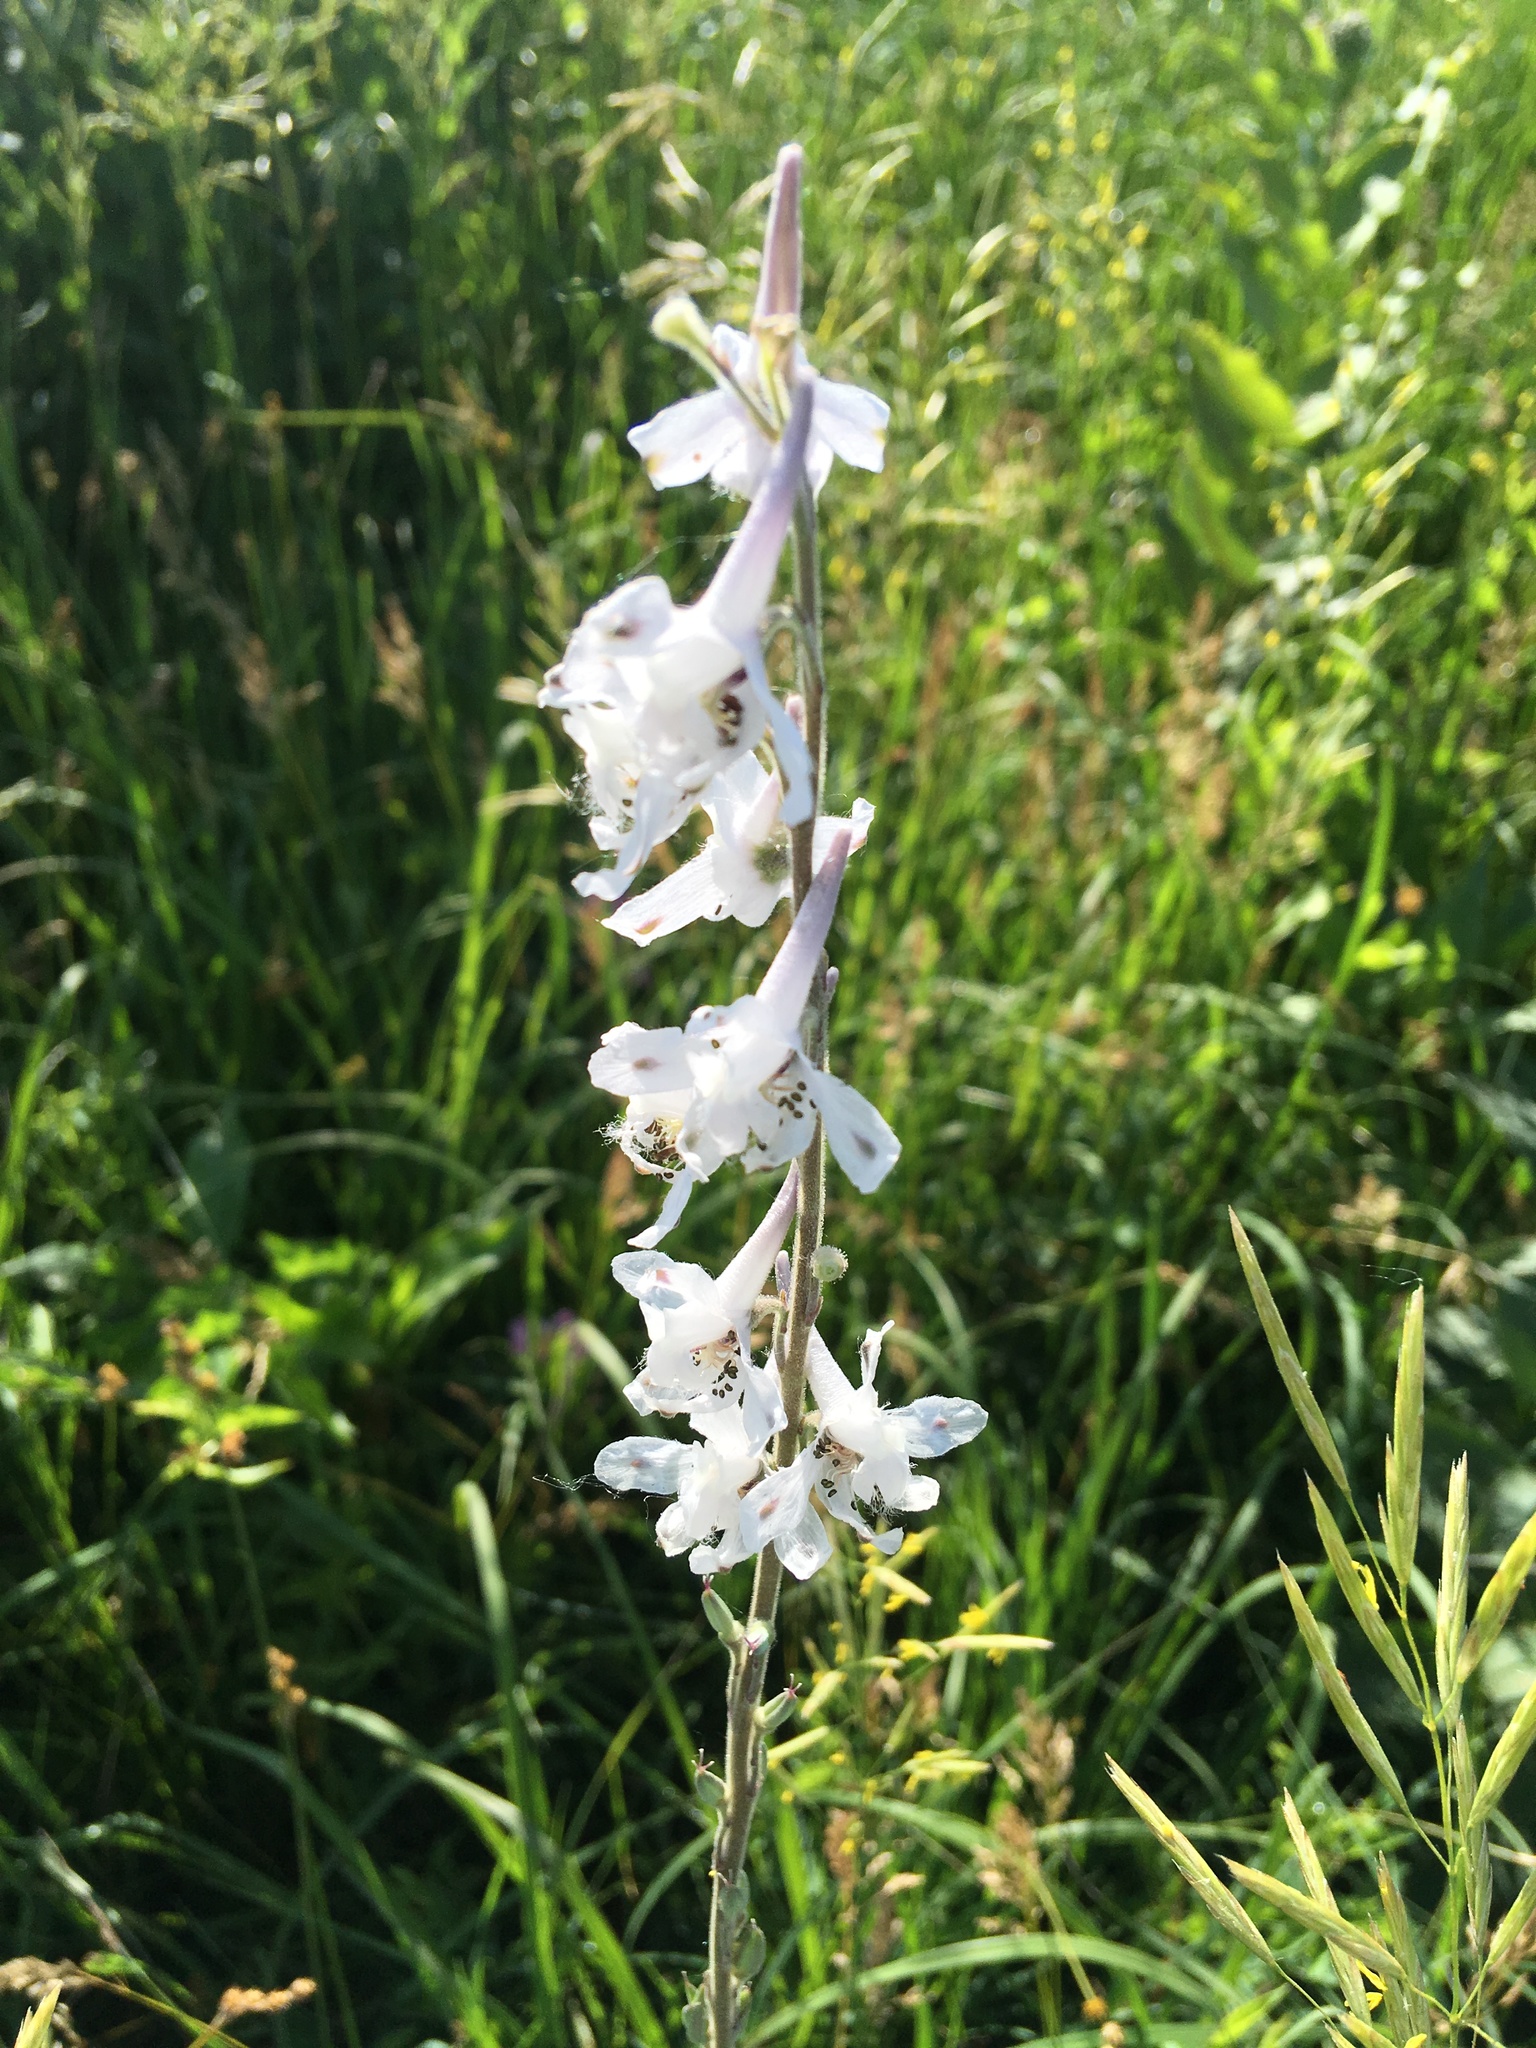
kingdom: Plantae
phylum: Tracheophyta
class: Magnoliopsida
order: Ranunculales
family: Ranunculaceae
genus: Delphinium
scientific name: Delphinium carolinianum
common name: Carolina larkspur
